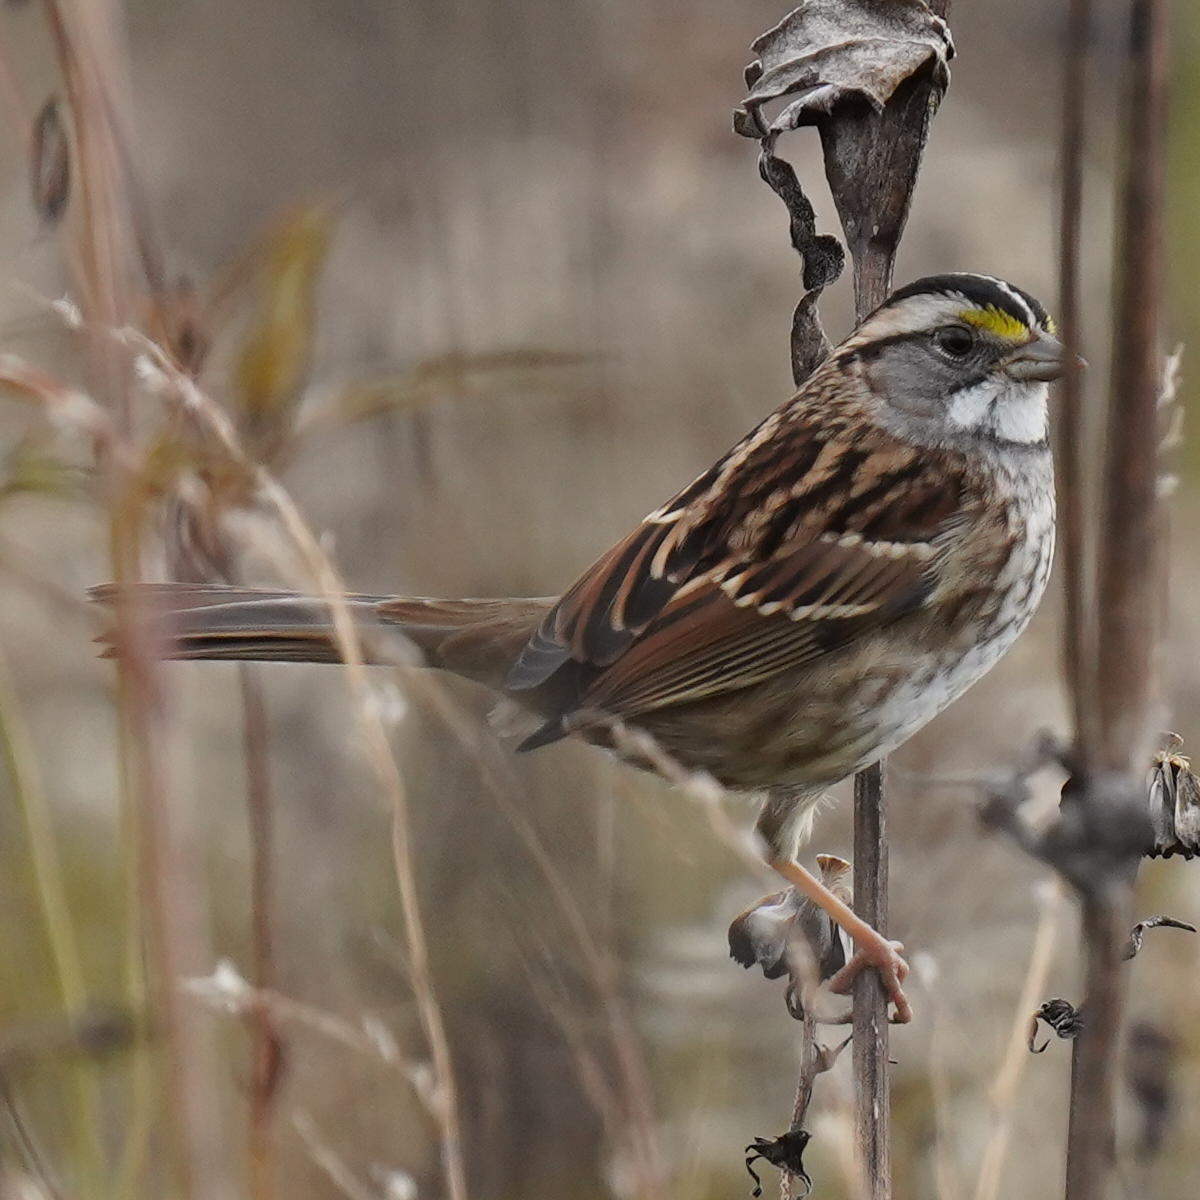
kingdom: Animalia
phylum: Chordata
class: Aves
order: Passeriformes
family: Passerellidae
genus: Zonotrichia
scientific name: Zonotrichia albicollis
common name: White-throated sparrow
